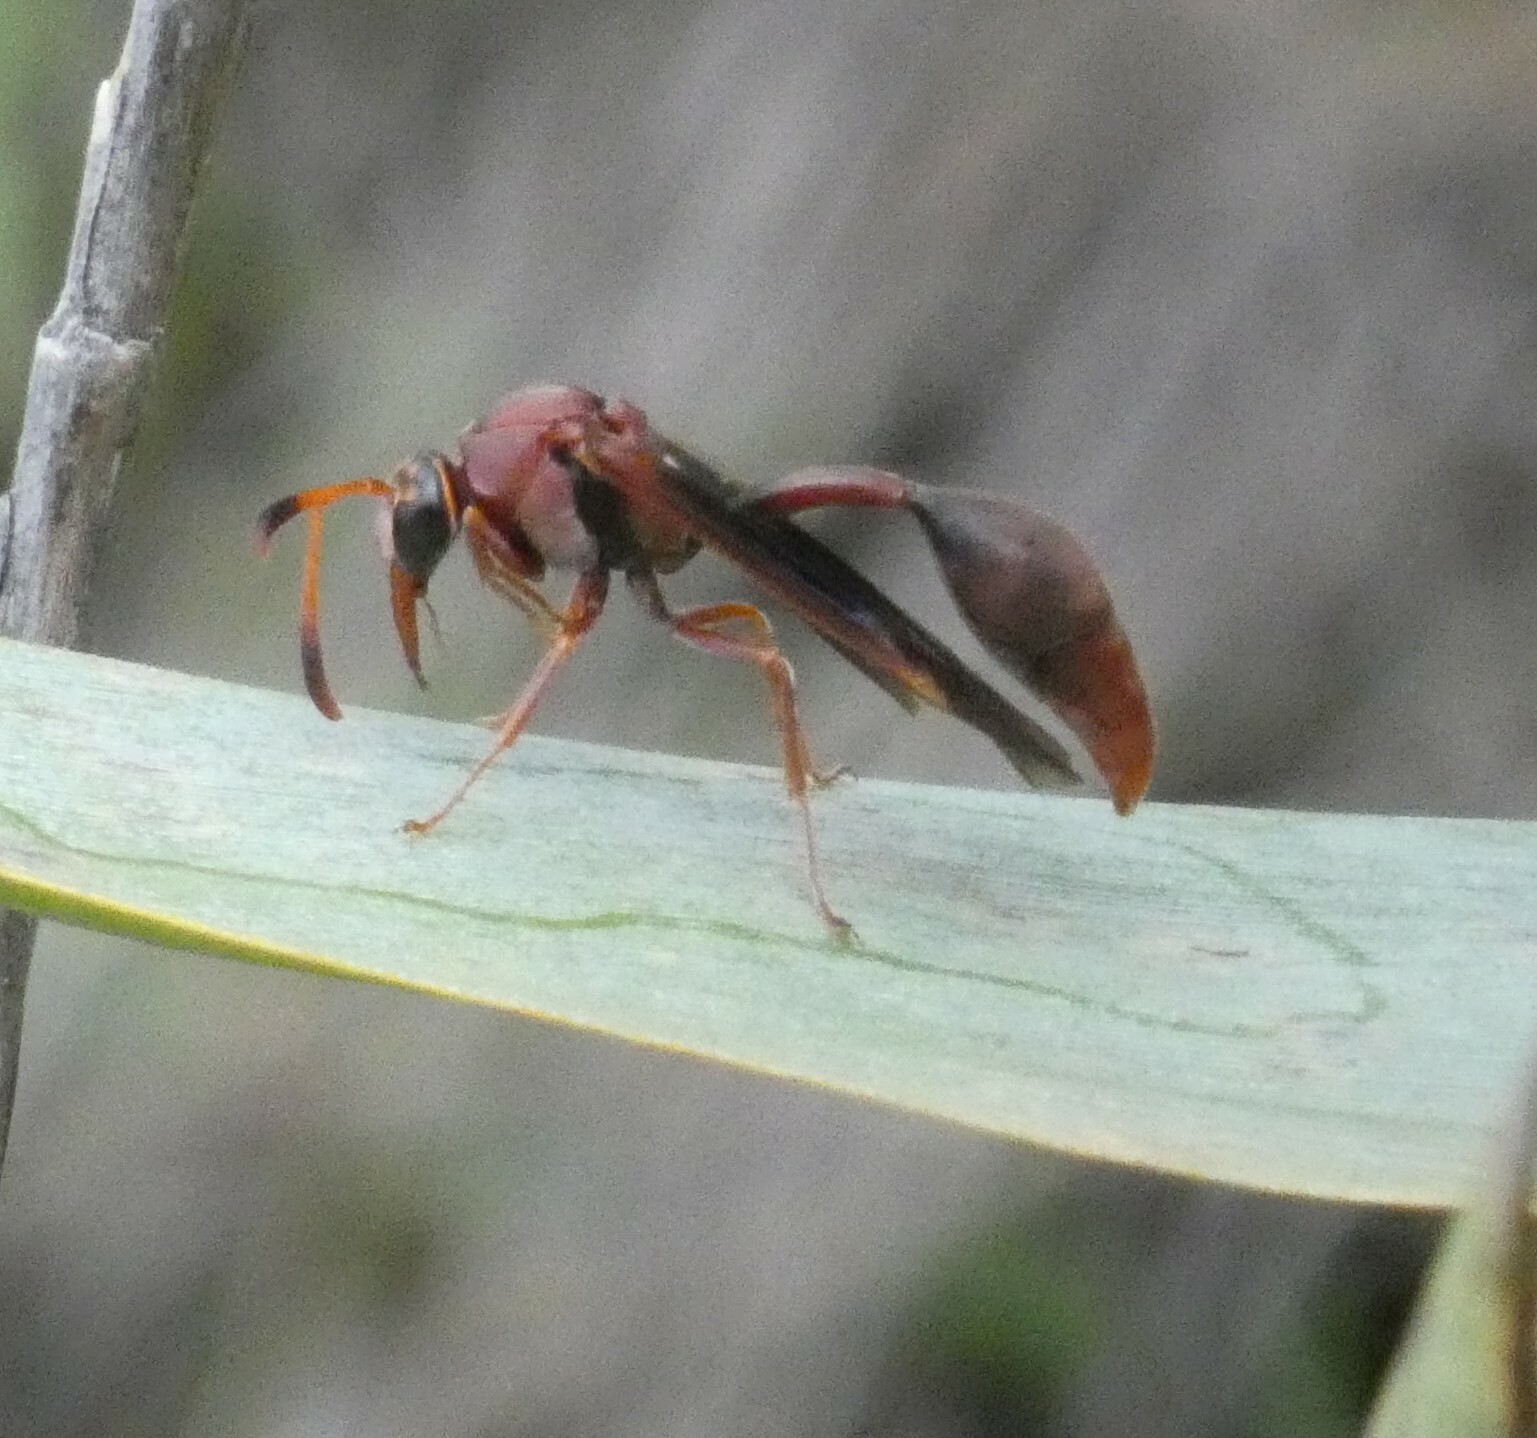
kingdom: Animalia
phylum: Arthropoda
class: Insecta
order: Hymenoptera
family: Eumenidae
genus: Zeta
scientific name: Zeta argillaceum
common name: Potter wasp
